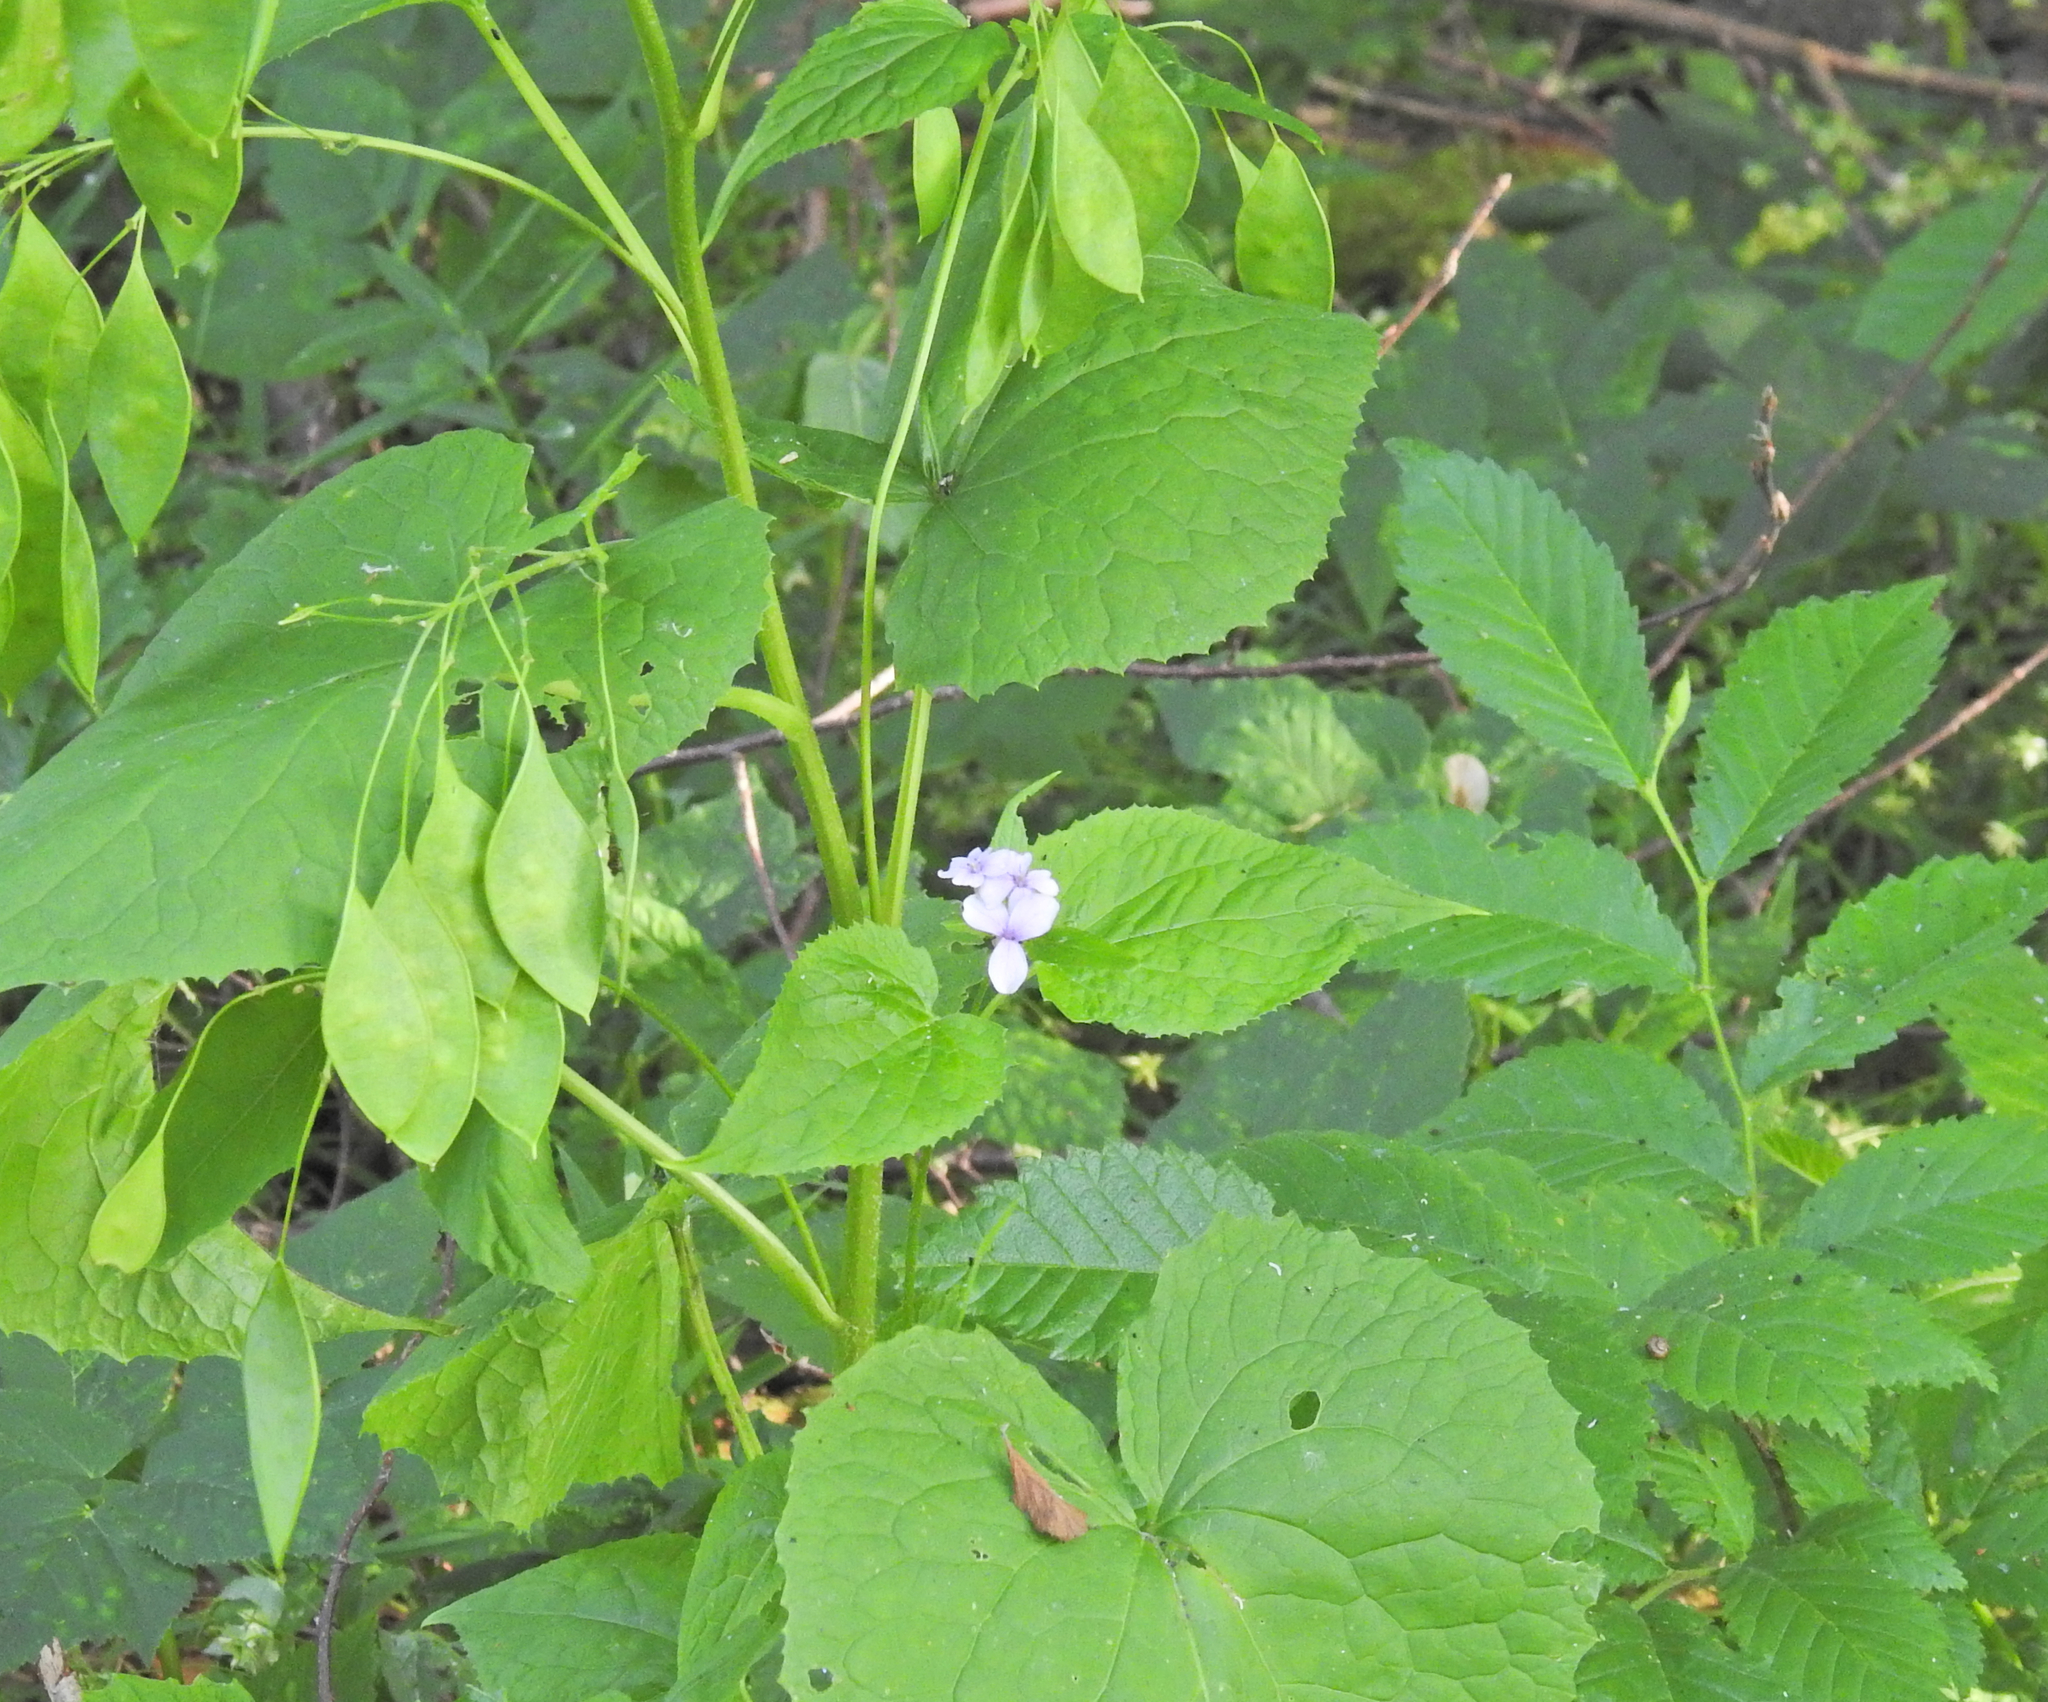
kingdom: Plantae
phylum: Tracheophyta
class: Magnoliopsida
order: Brassicales
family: Brassicaceae
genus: Lunaria
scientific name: Lunaria rediviva
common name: Perennial honesty
